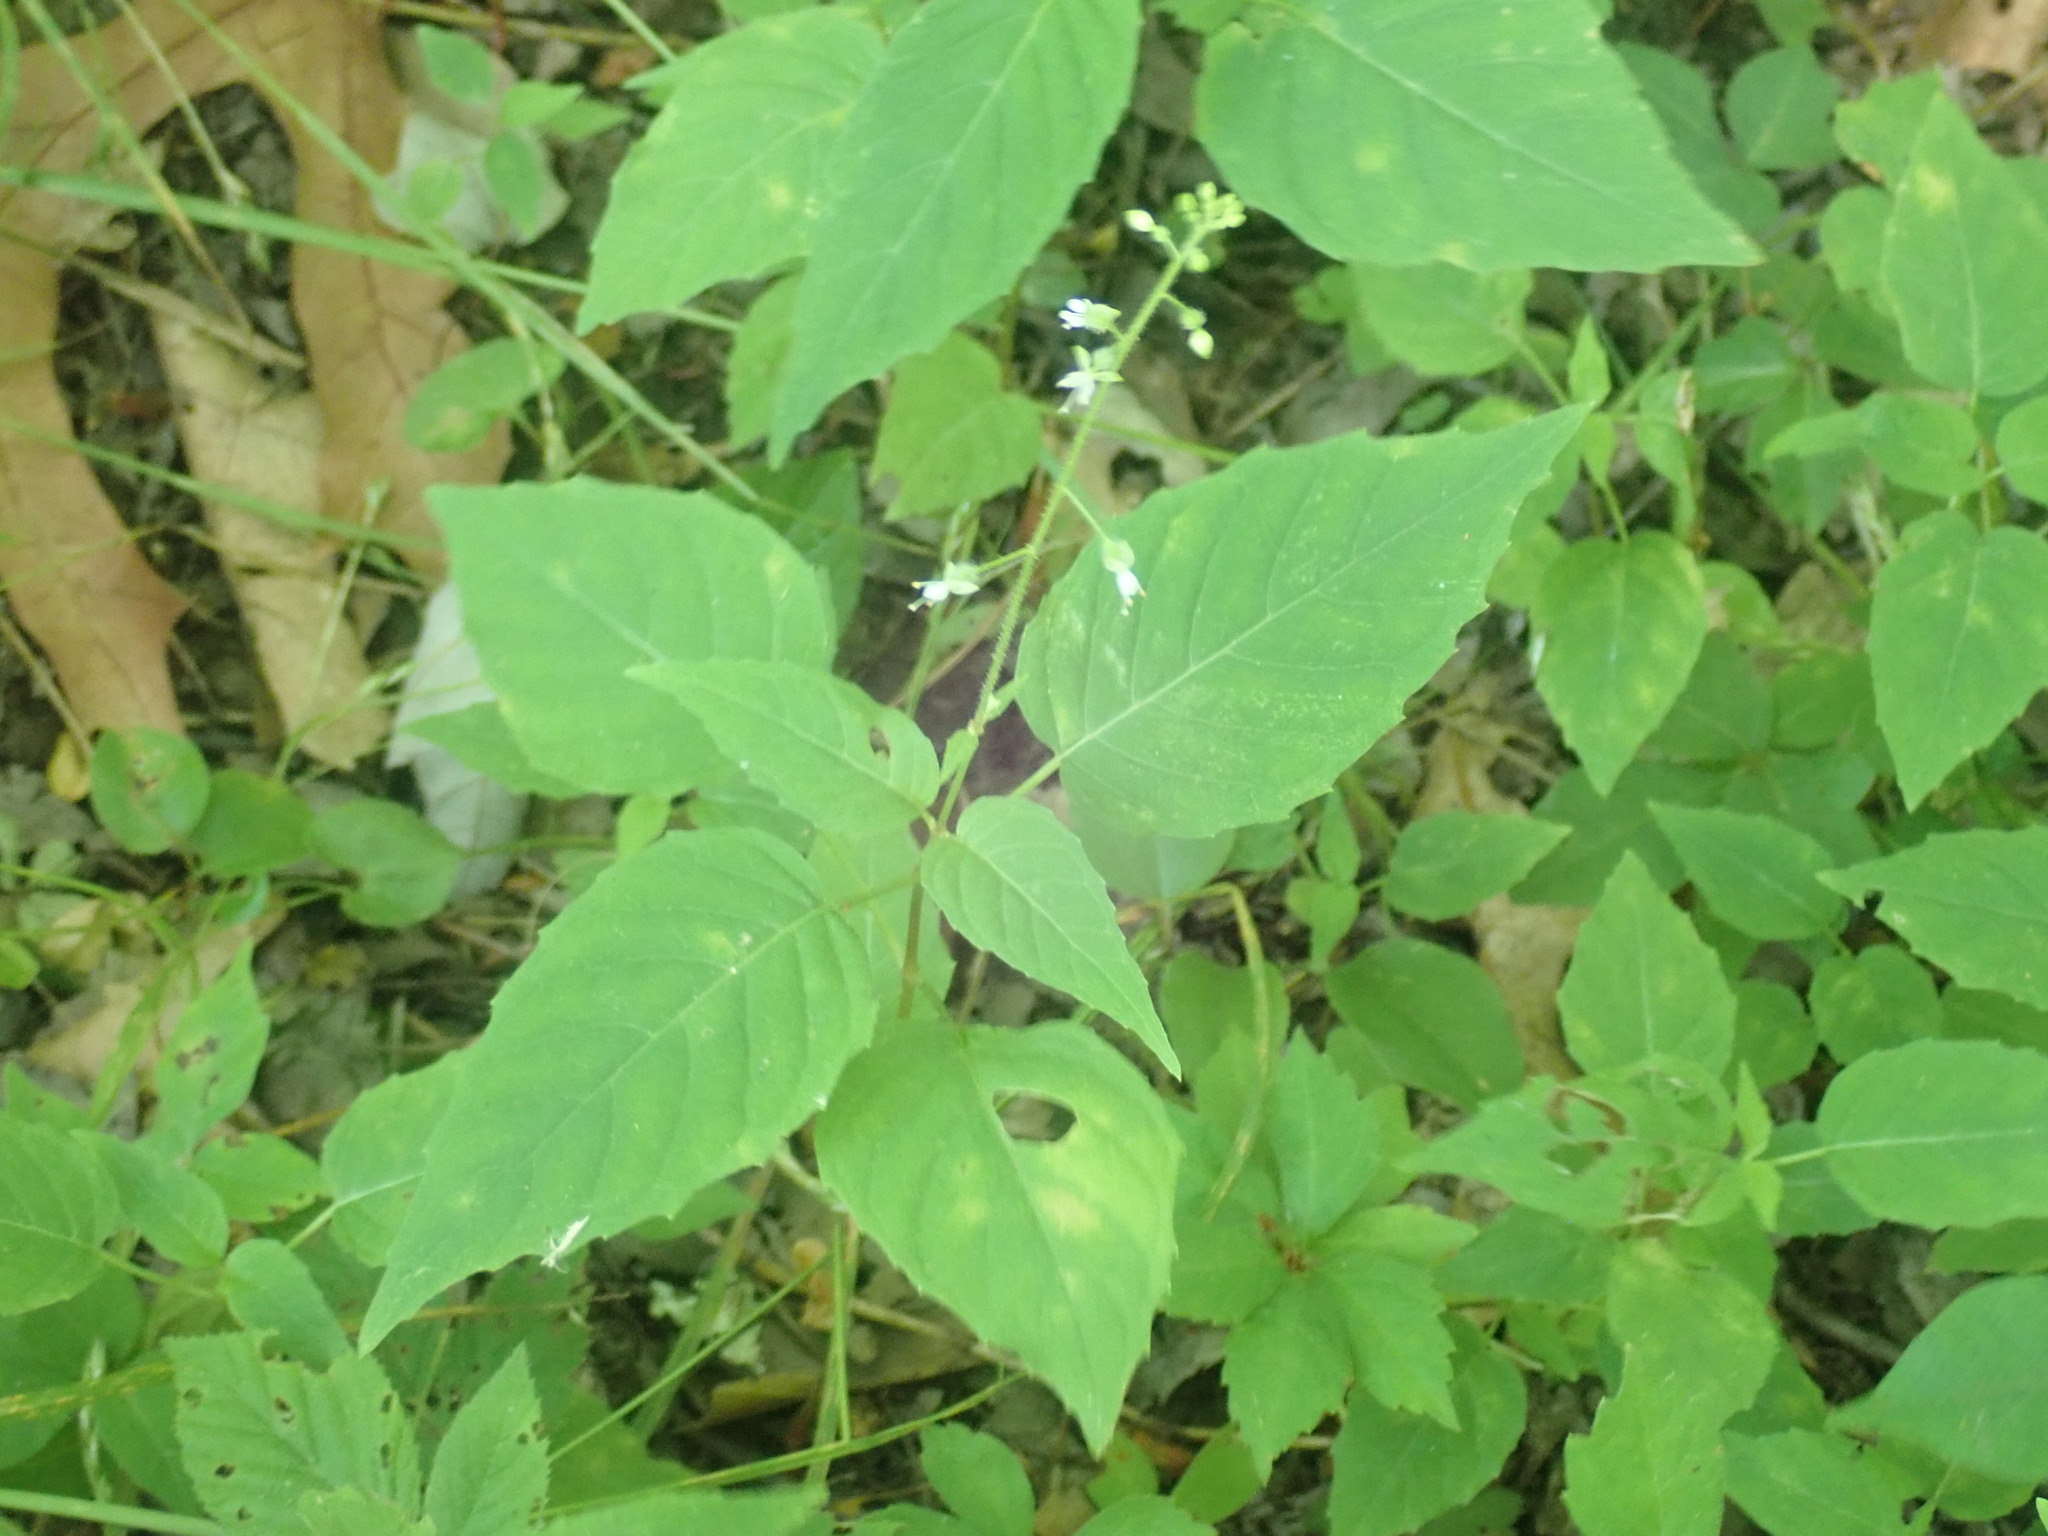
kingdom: Plantae
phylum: Tracheophyta
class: Magnoliopsida
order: Myrtales
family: Onagraceae
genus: Circaea
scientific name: Circaea canadensis
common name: Broad-leaved enchanter's nightshade
